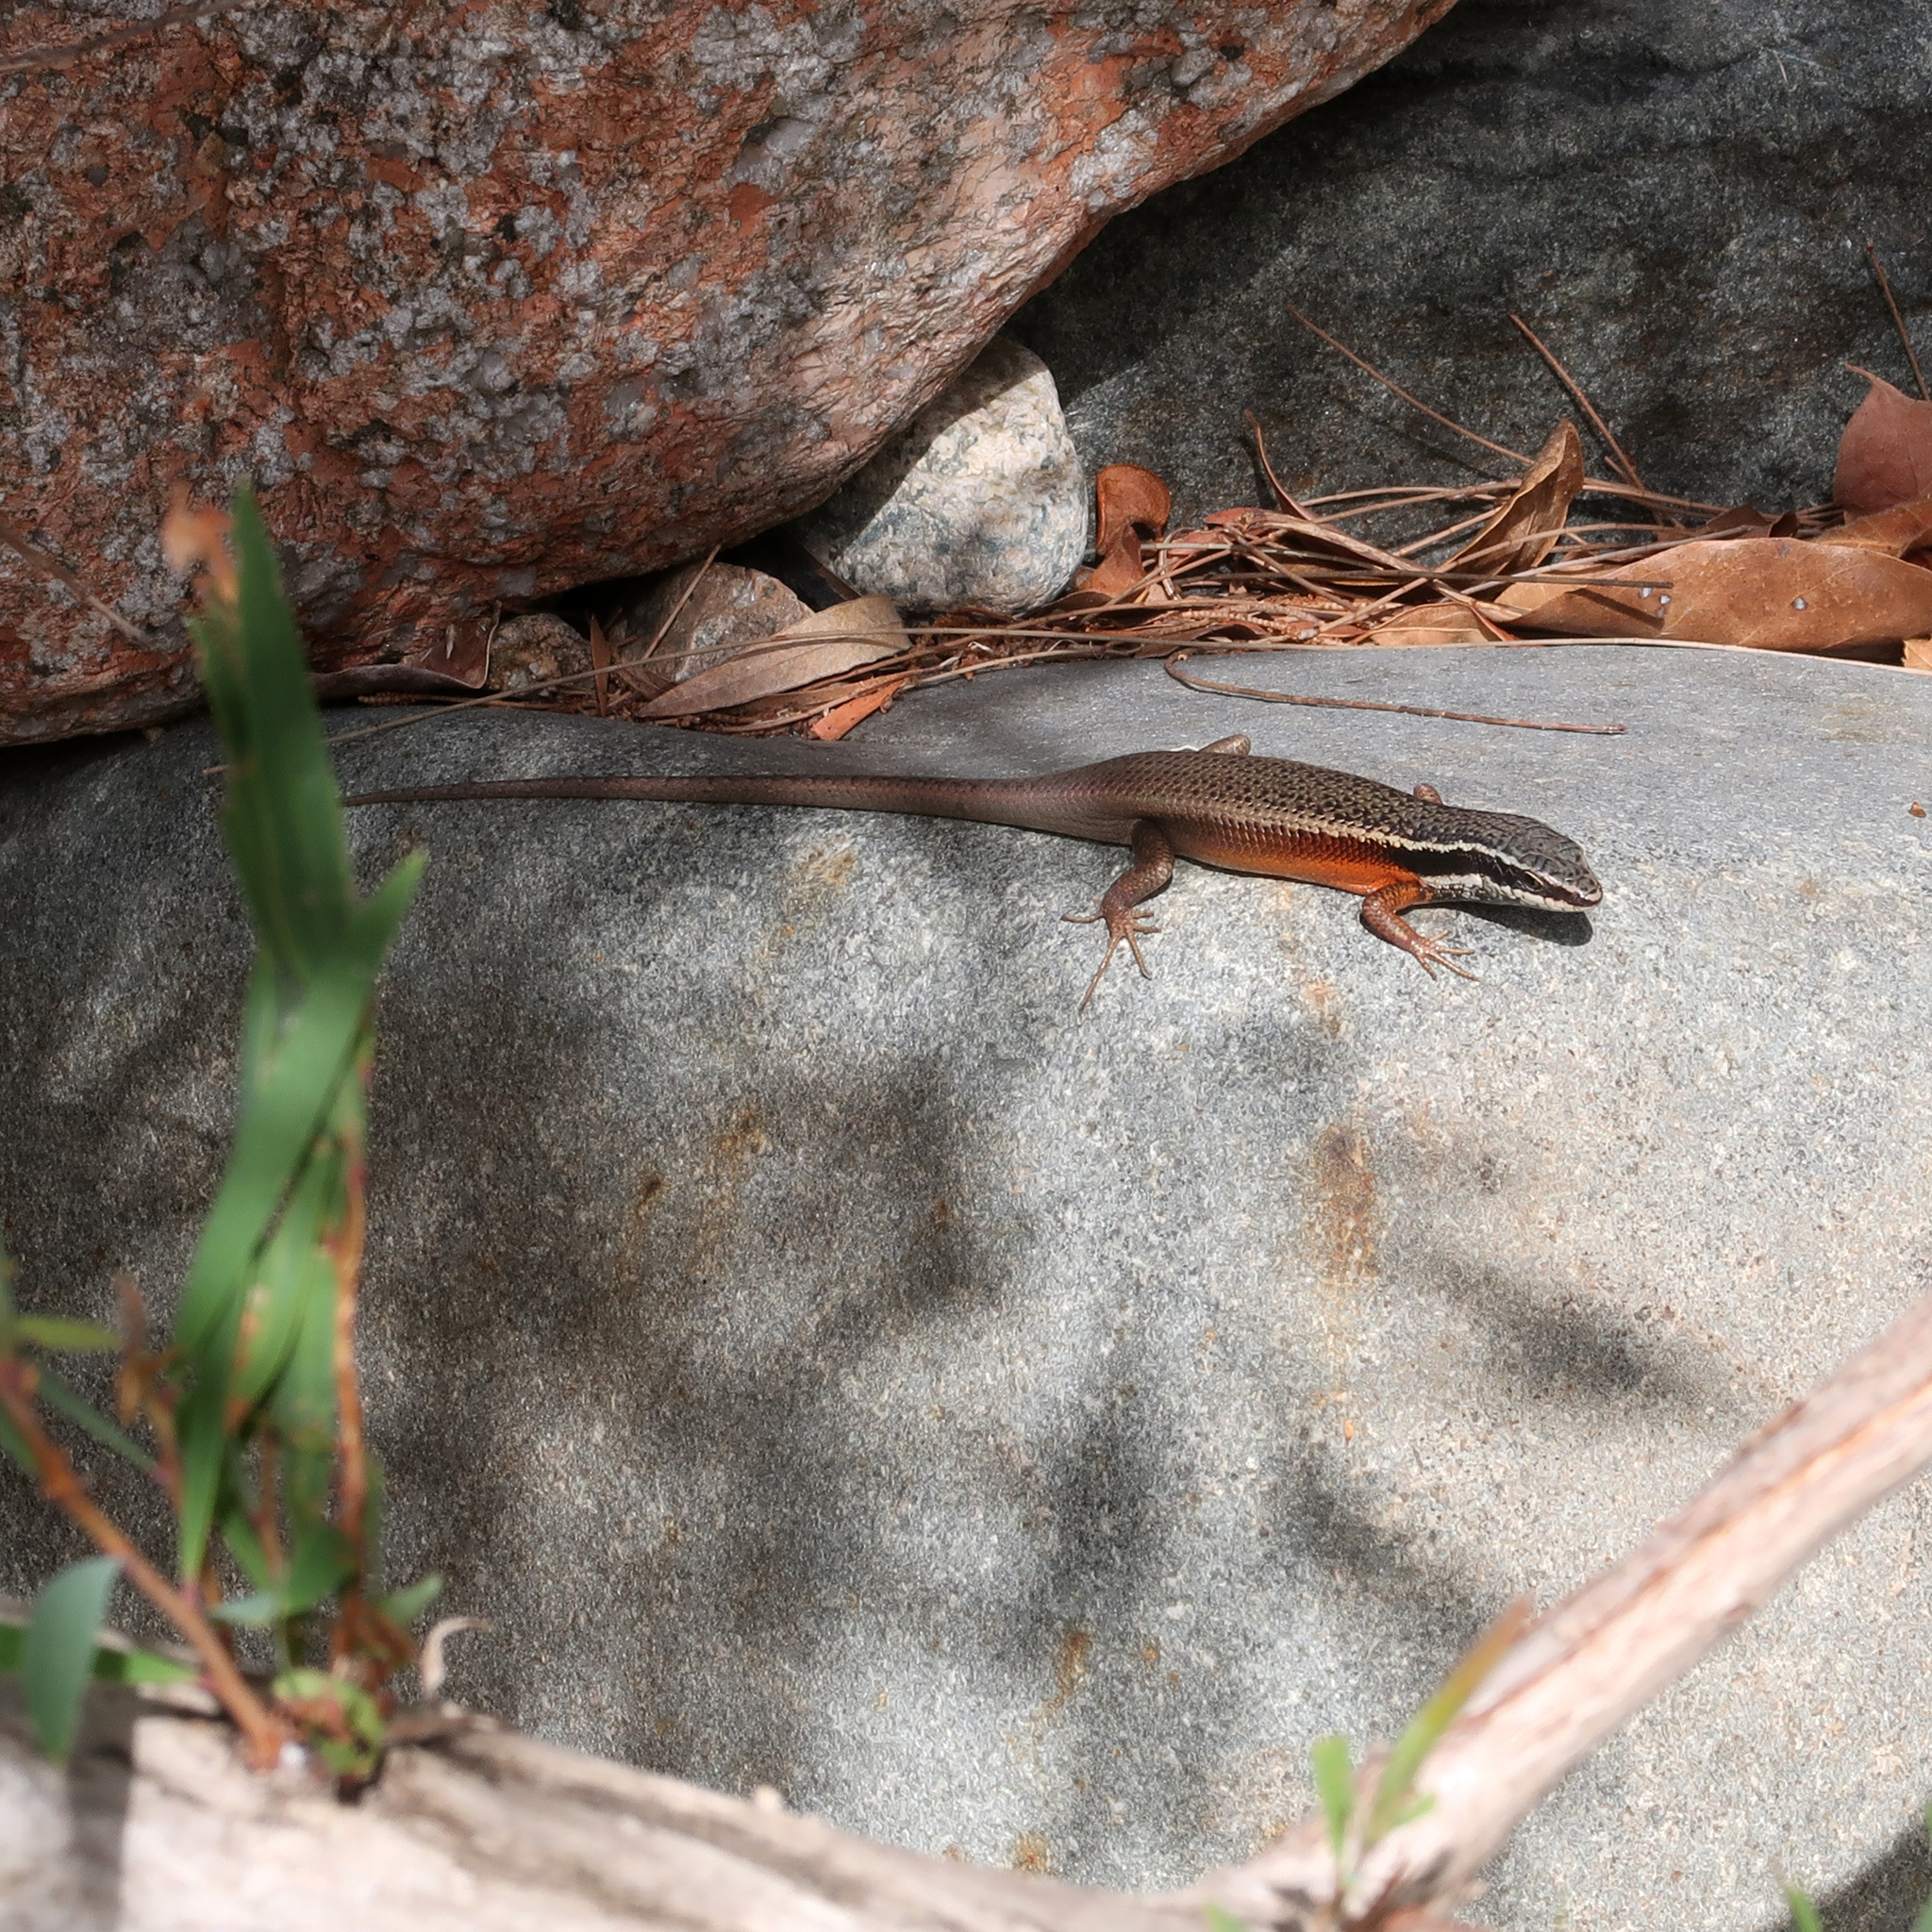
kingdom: Animalia
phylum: Chordata
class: Squamata
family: Scincidae
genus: Carlia
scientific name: Carlia rostralis
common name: Black-throated rainbow-skink
